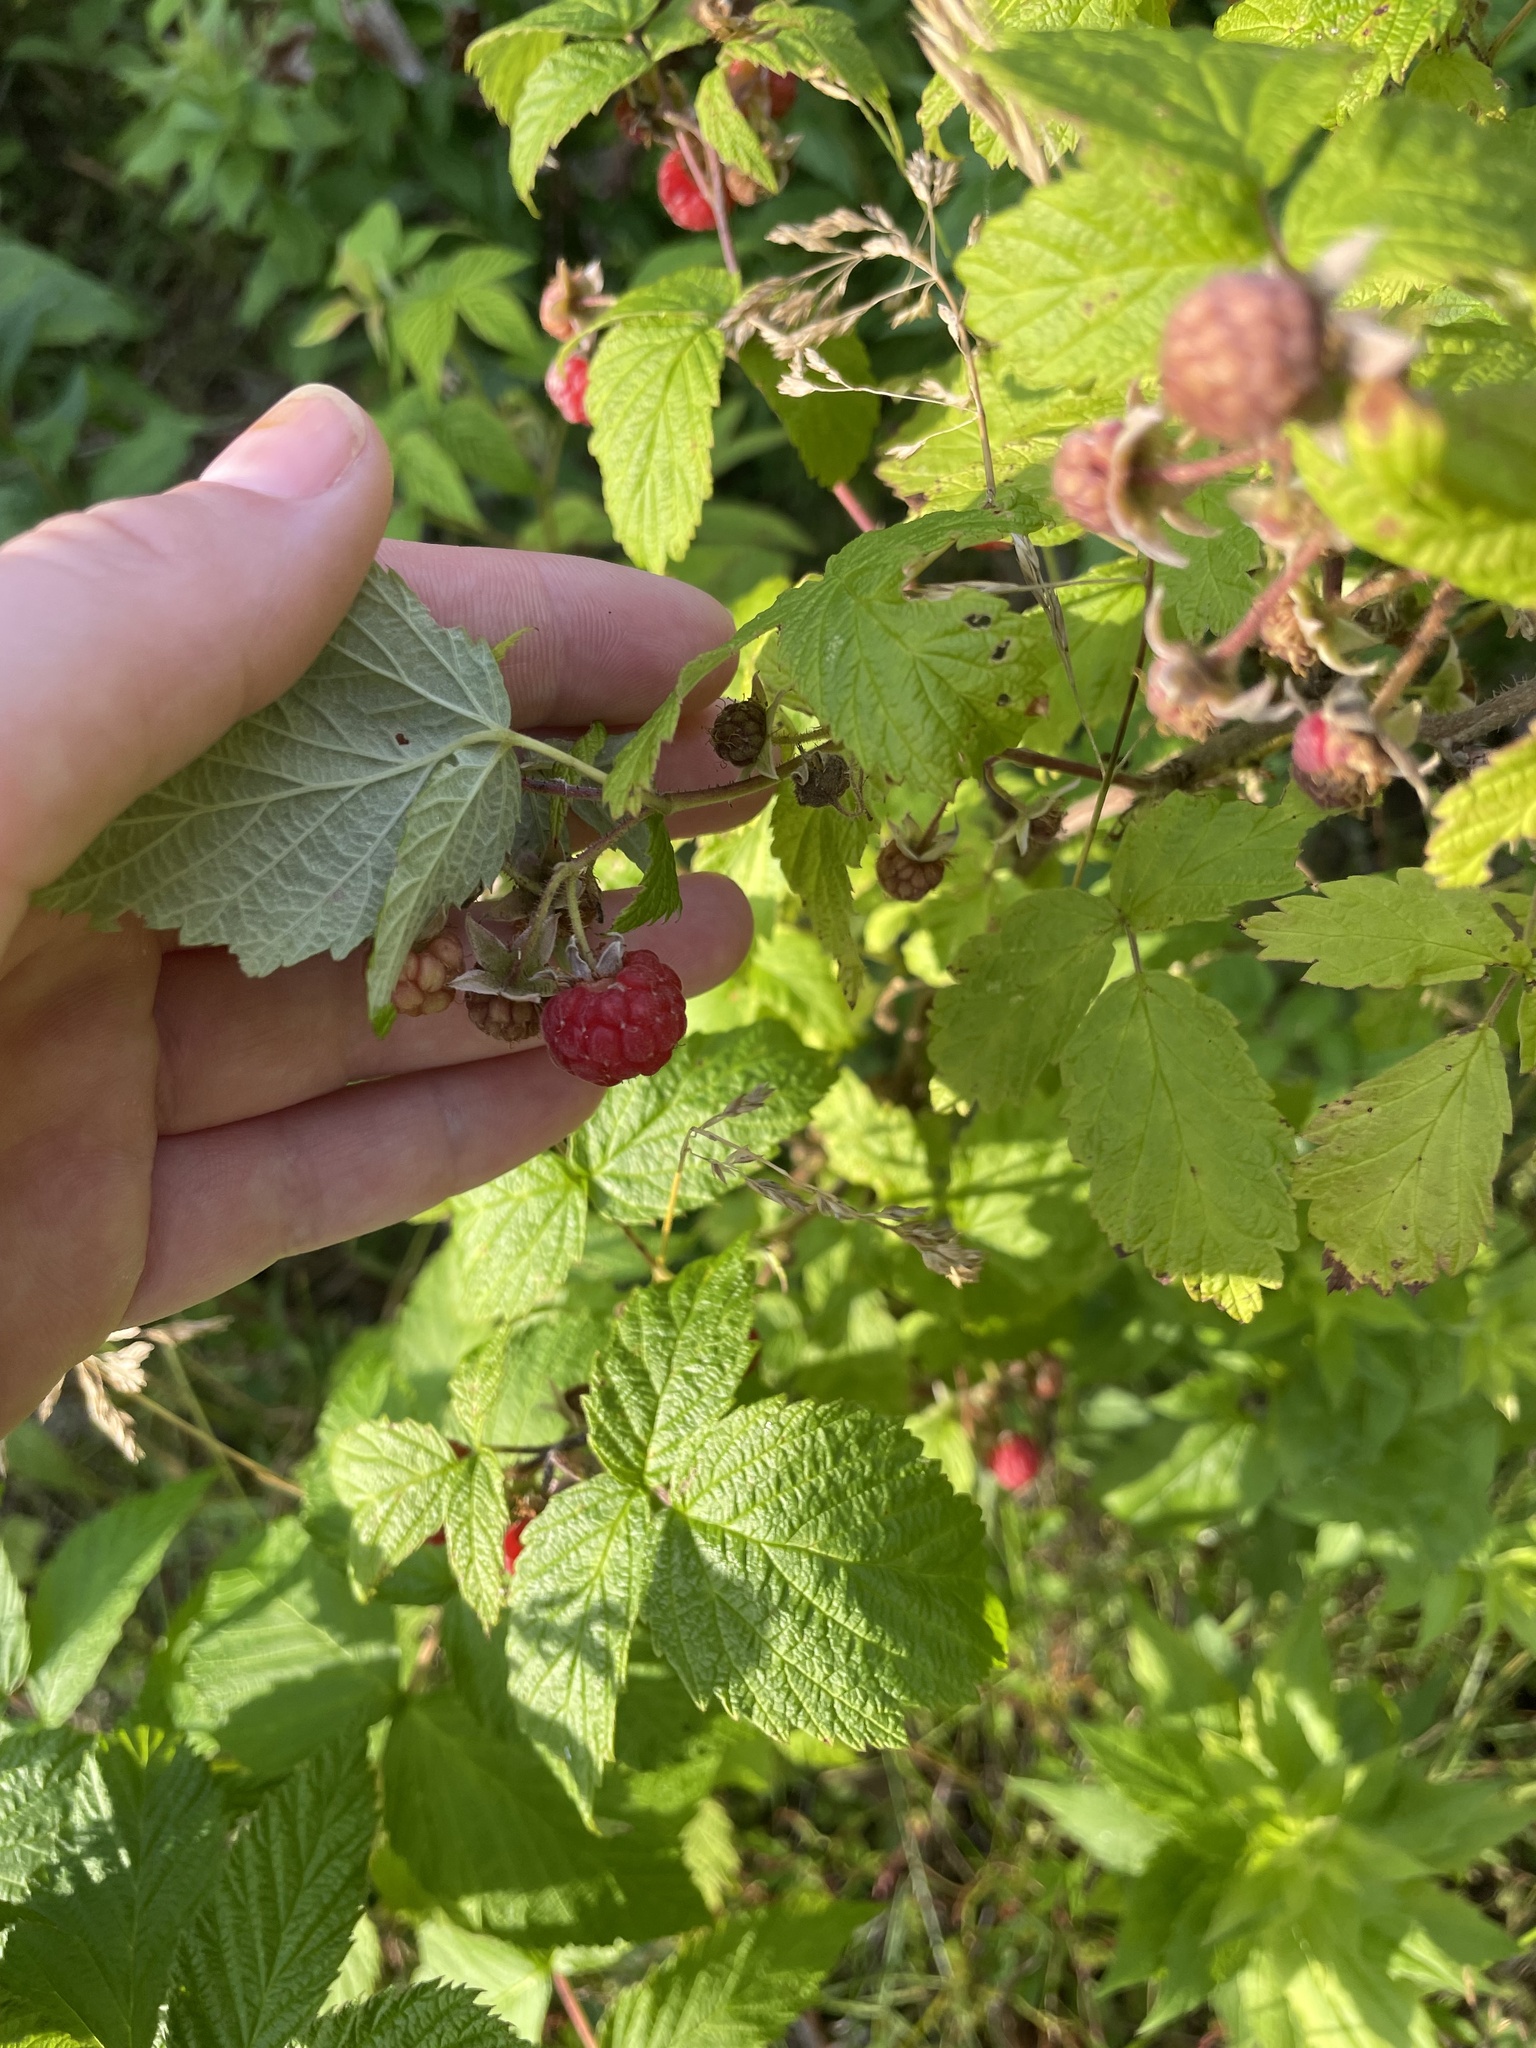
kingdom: Plantae
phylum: Tracheophyta
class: Magnoliopsida
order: Rosales
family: Rosaceae
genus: Rubus
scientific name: Rubus idaeus
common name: Raspberry
